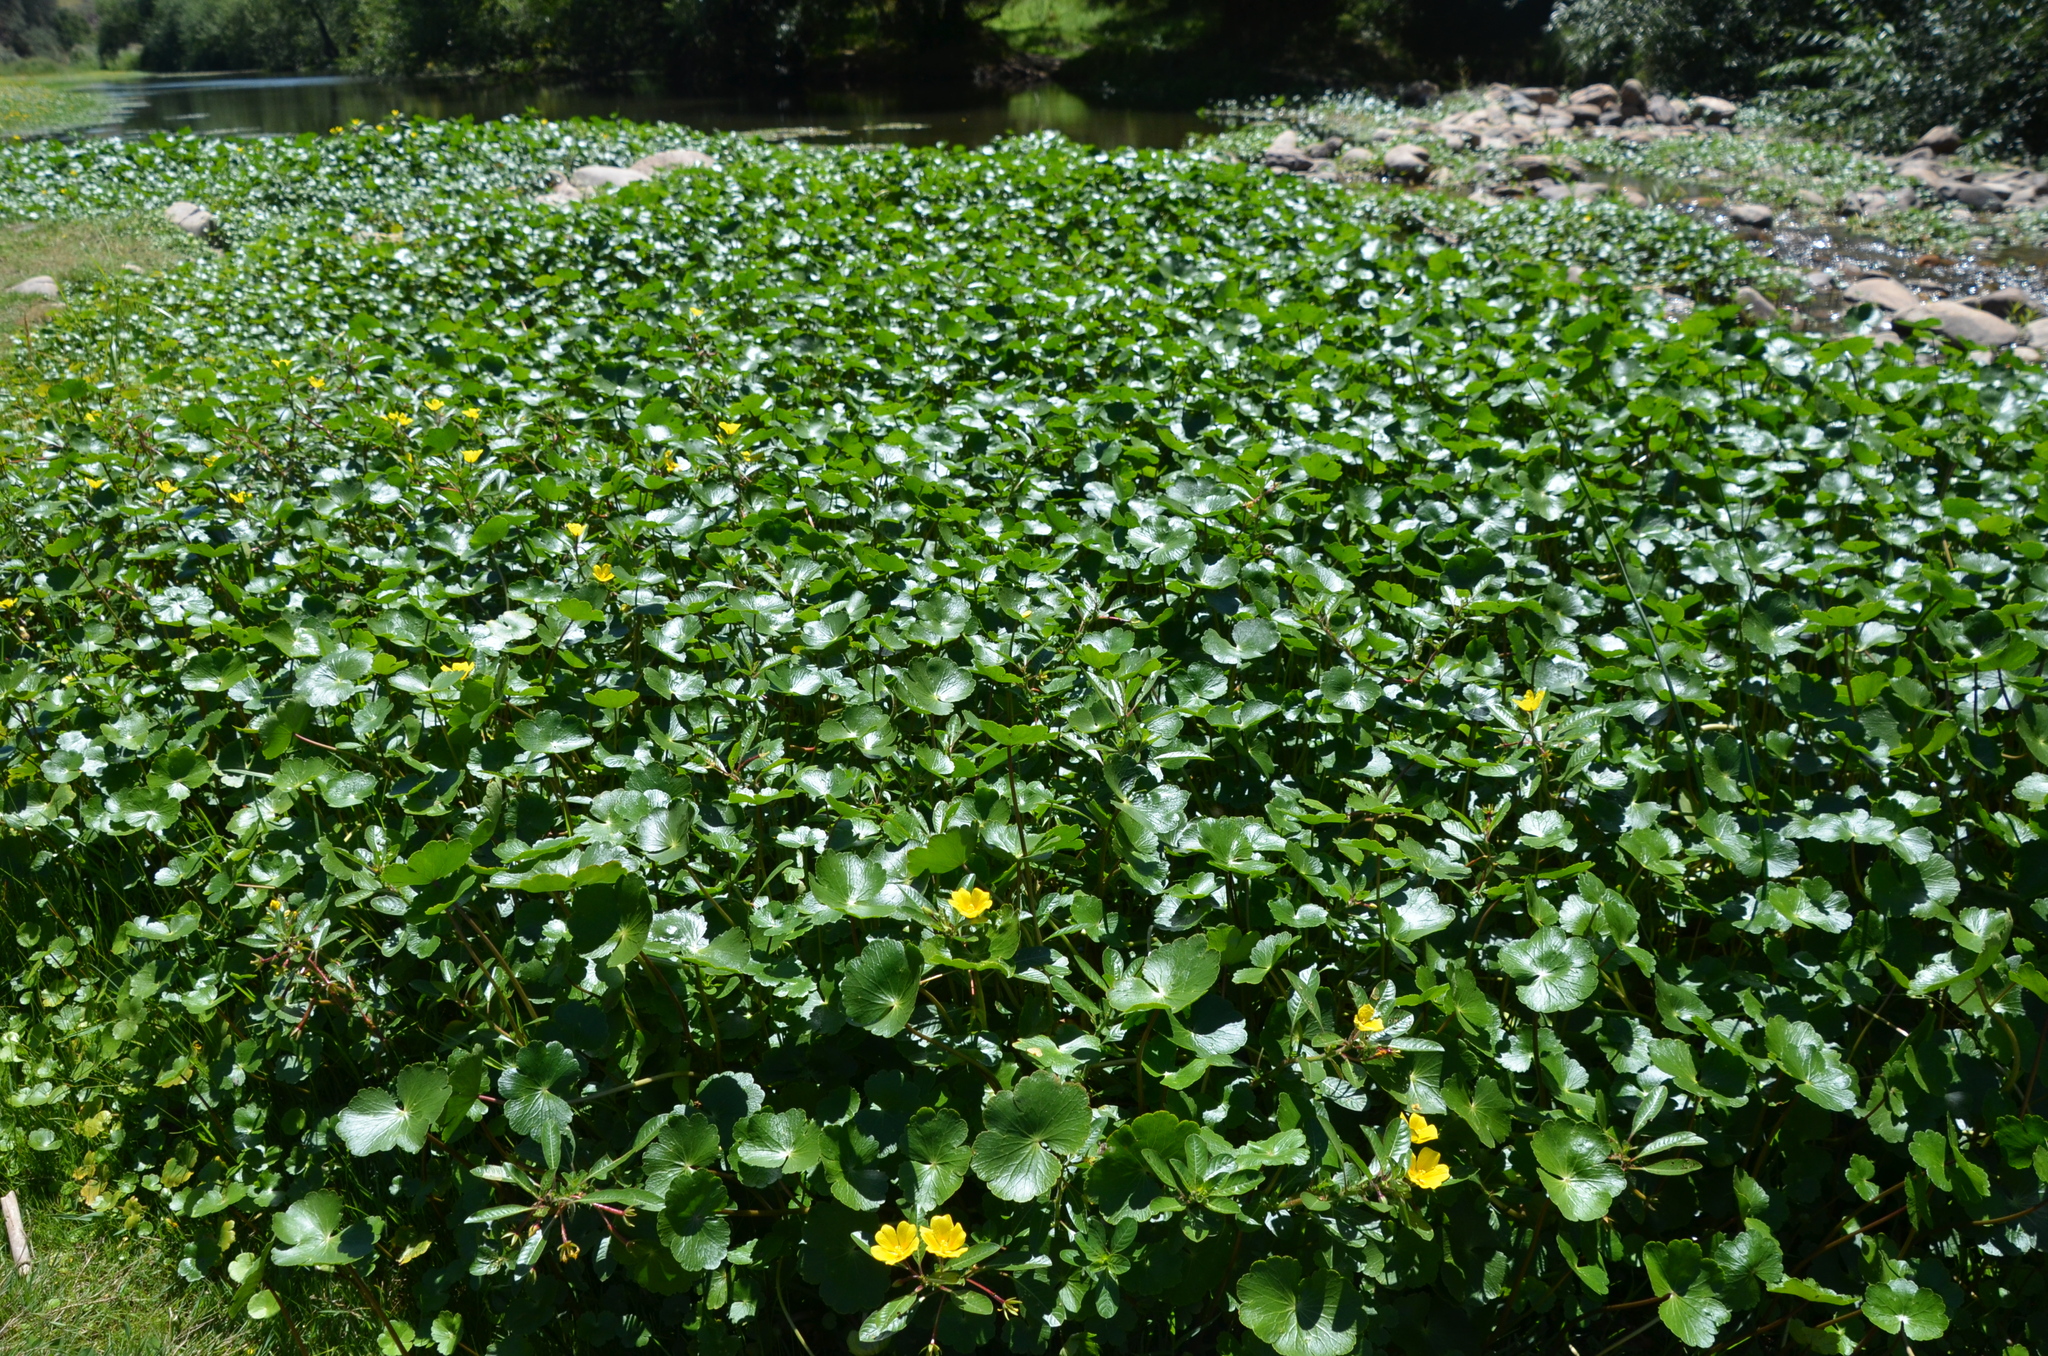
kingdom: Plantae
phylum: Tracheophyta
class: Magnoliopsida
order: Apiales
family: Araliaceae
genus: Hydrocotyle
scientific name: Hydrocotyle ranunculoides
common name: Floating pennywort
